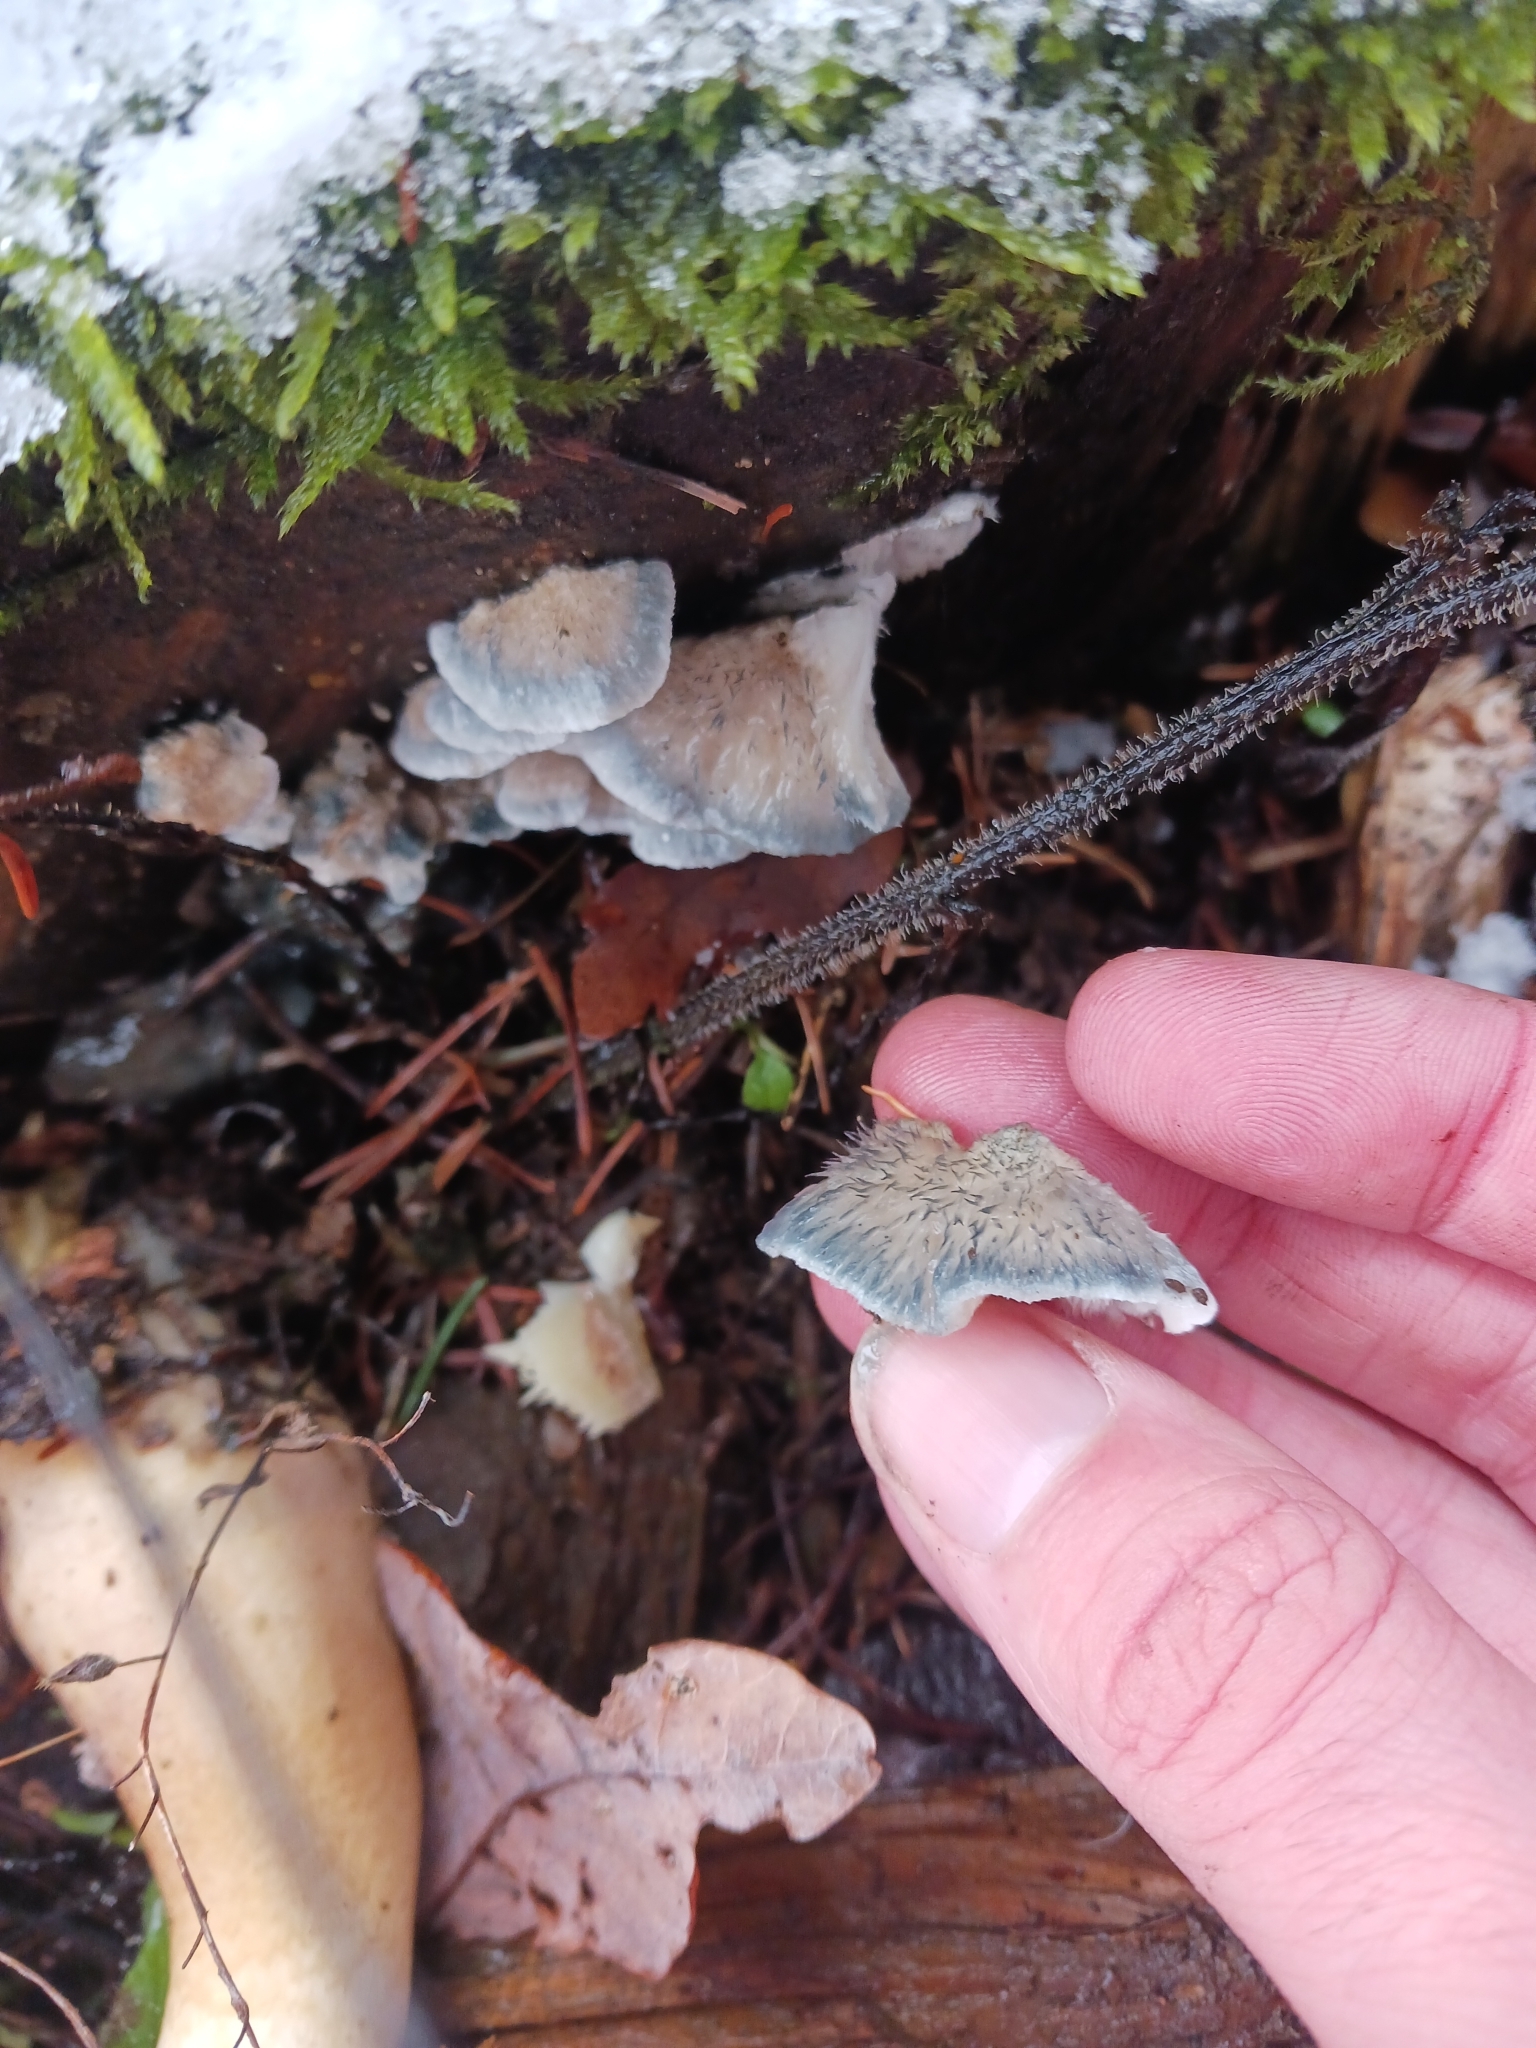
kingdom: Fungi
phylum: Basidiomycota
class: Agaricomycetes
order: Polyporales
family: Polyporaceae
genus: Cyanosporus
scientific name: Cyanosporus caesius
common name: Blue cheese polypore
